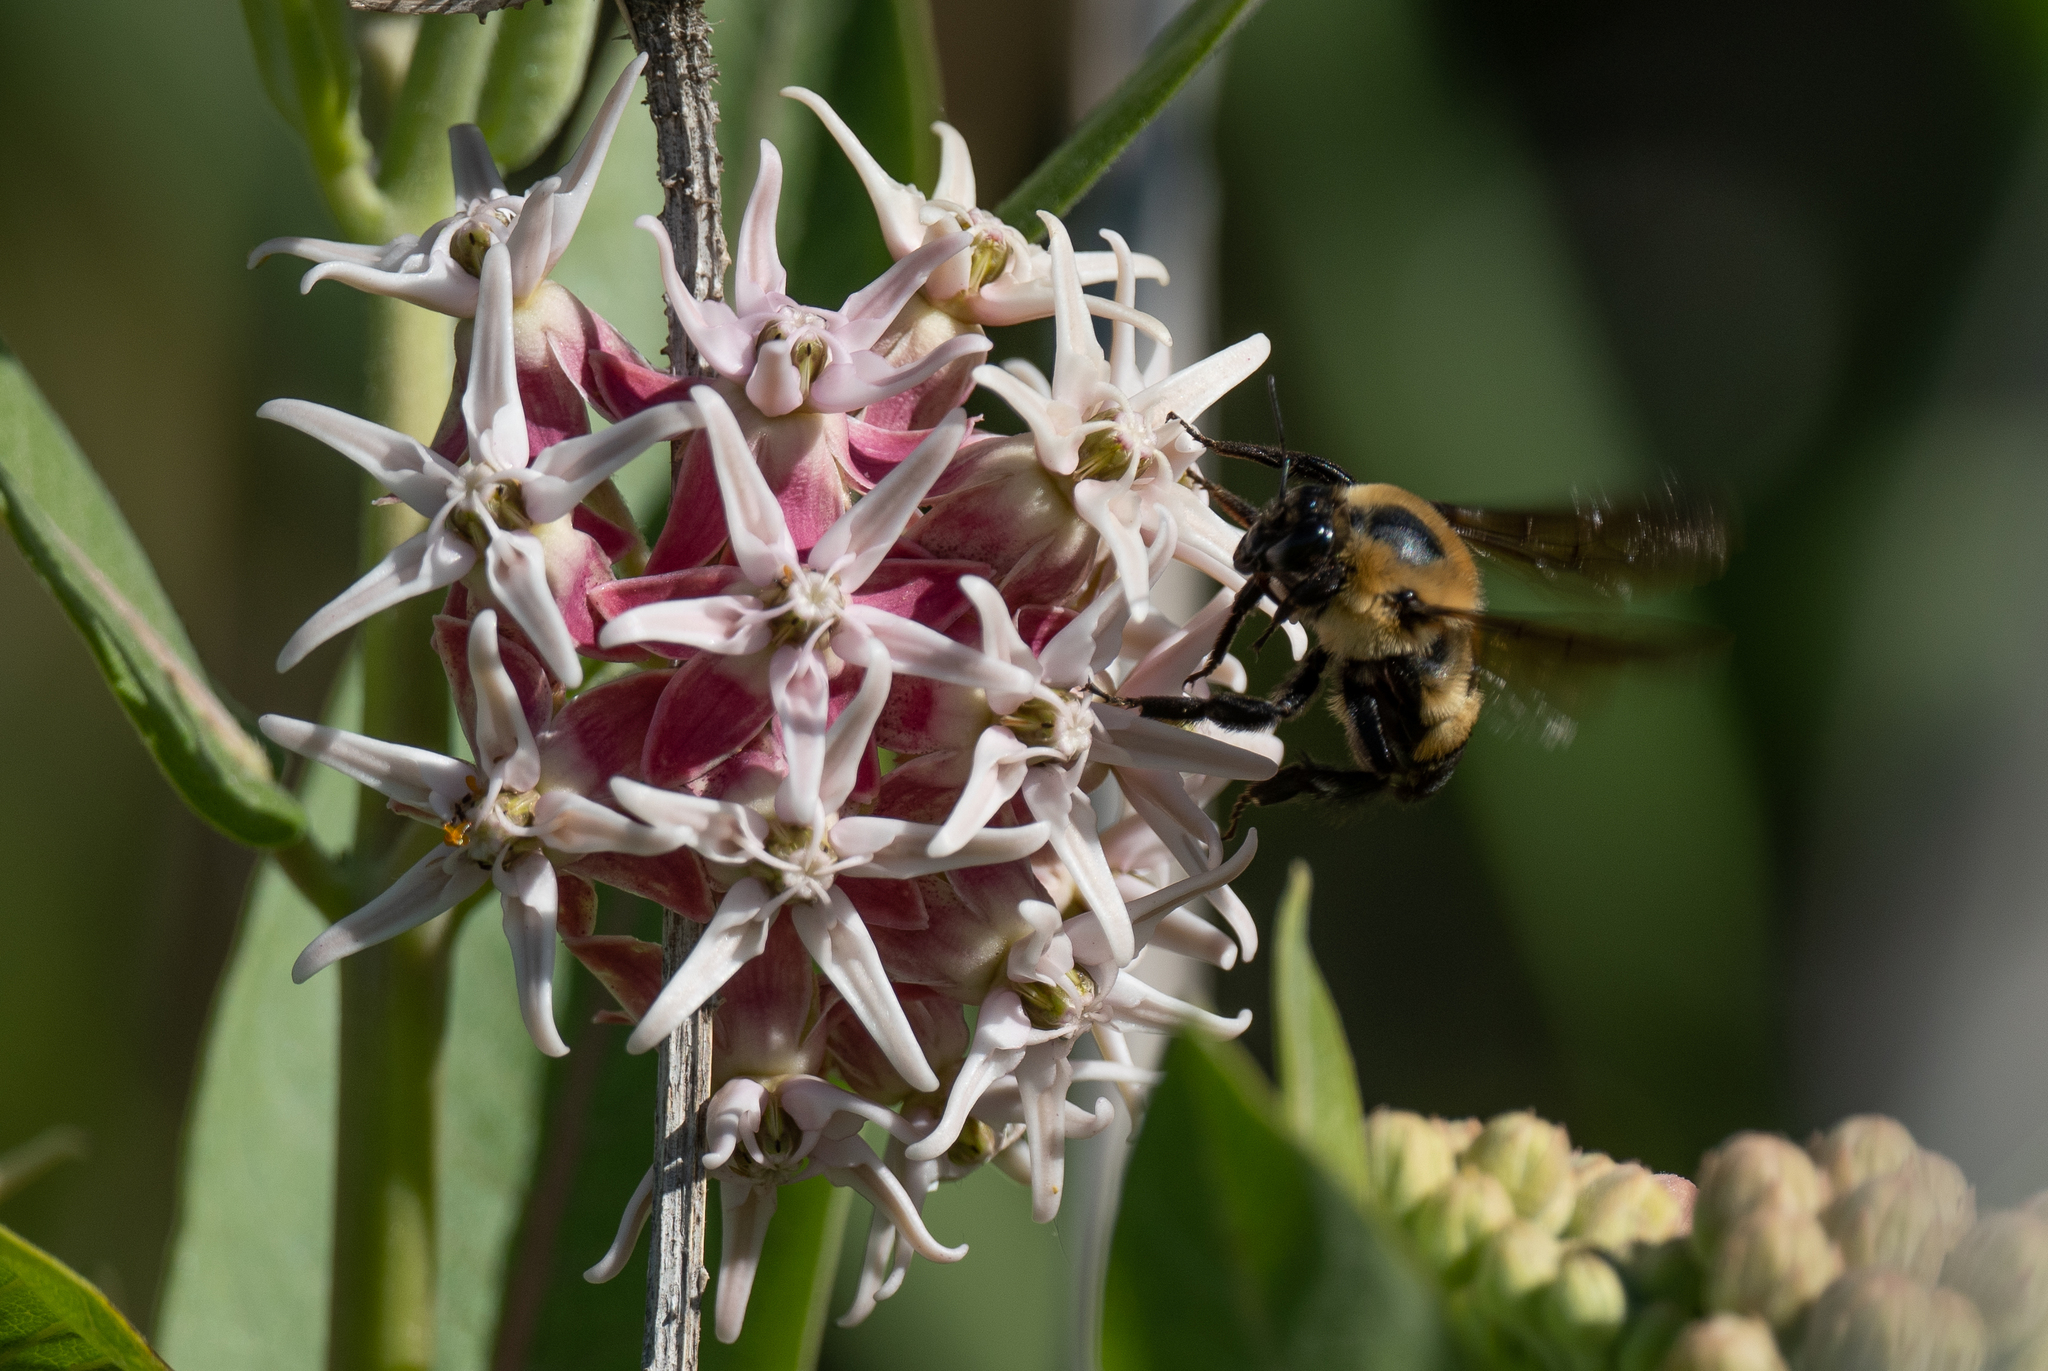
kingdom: Animalia
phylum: Arthropoda
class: Insecta
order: Hymenoptera
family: Apidae
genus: Bombus
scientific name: Bombus griseocollis
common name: Brown-belted bumble bee
